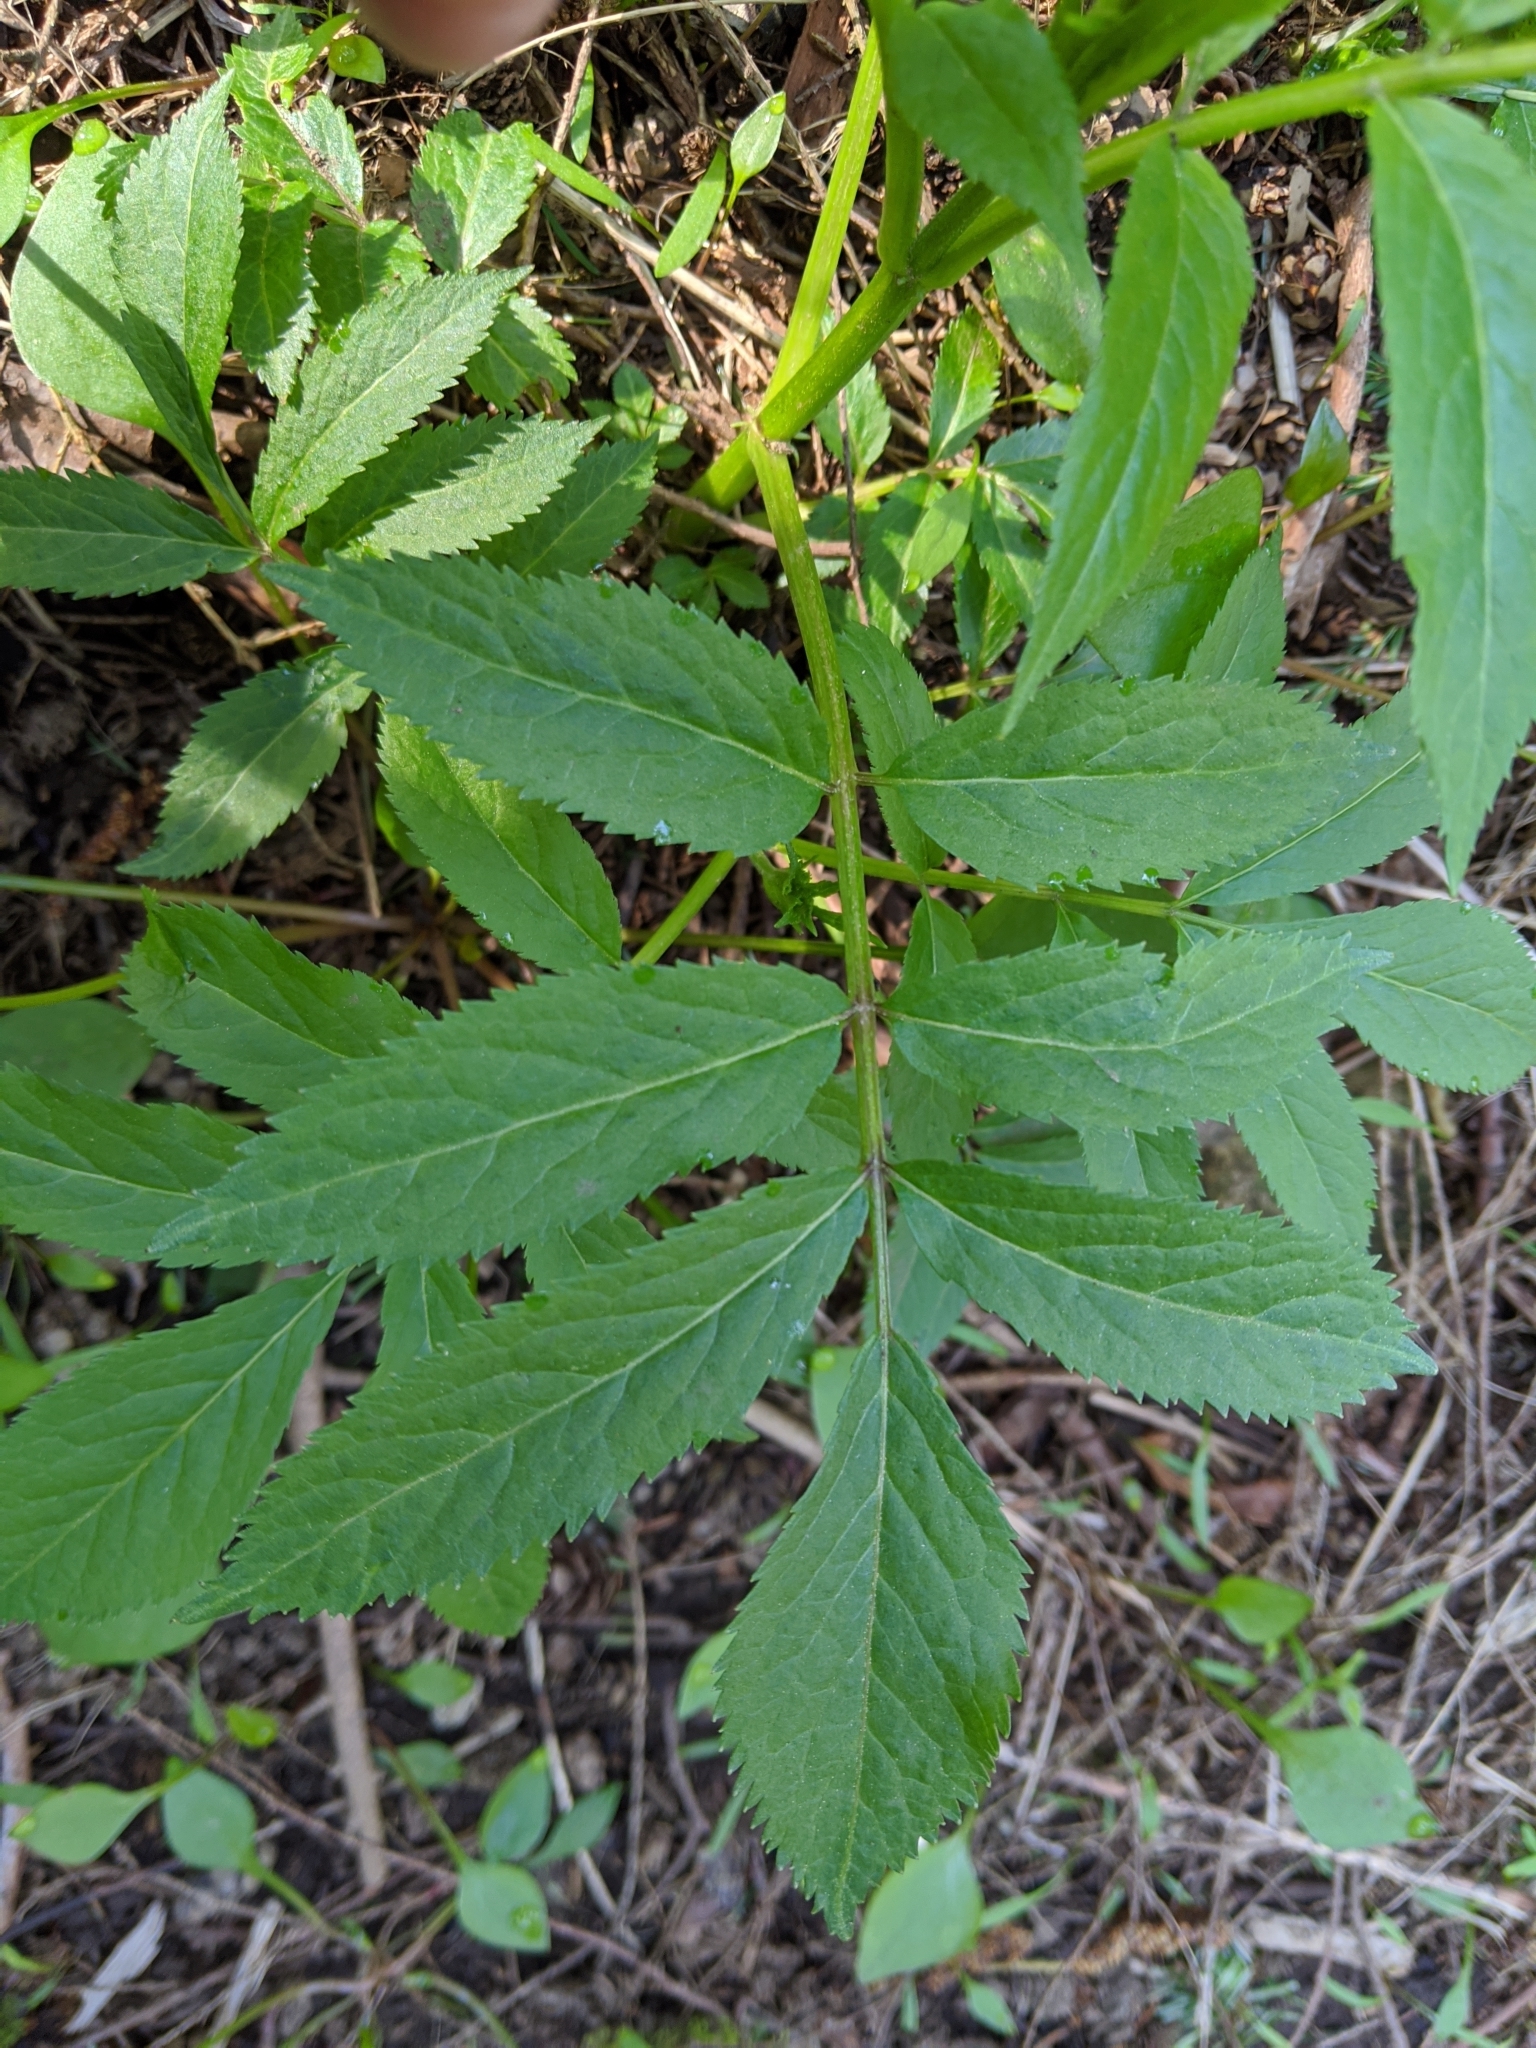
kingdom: Plantae
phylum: Tracheophyta
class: Magnoliopsida
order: Dipsacales
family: Viburnaceae
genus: Sambucus
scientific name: Sambucus racemosa
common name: Red-berried elder
